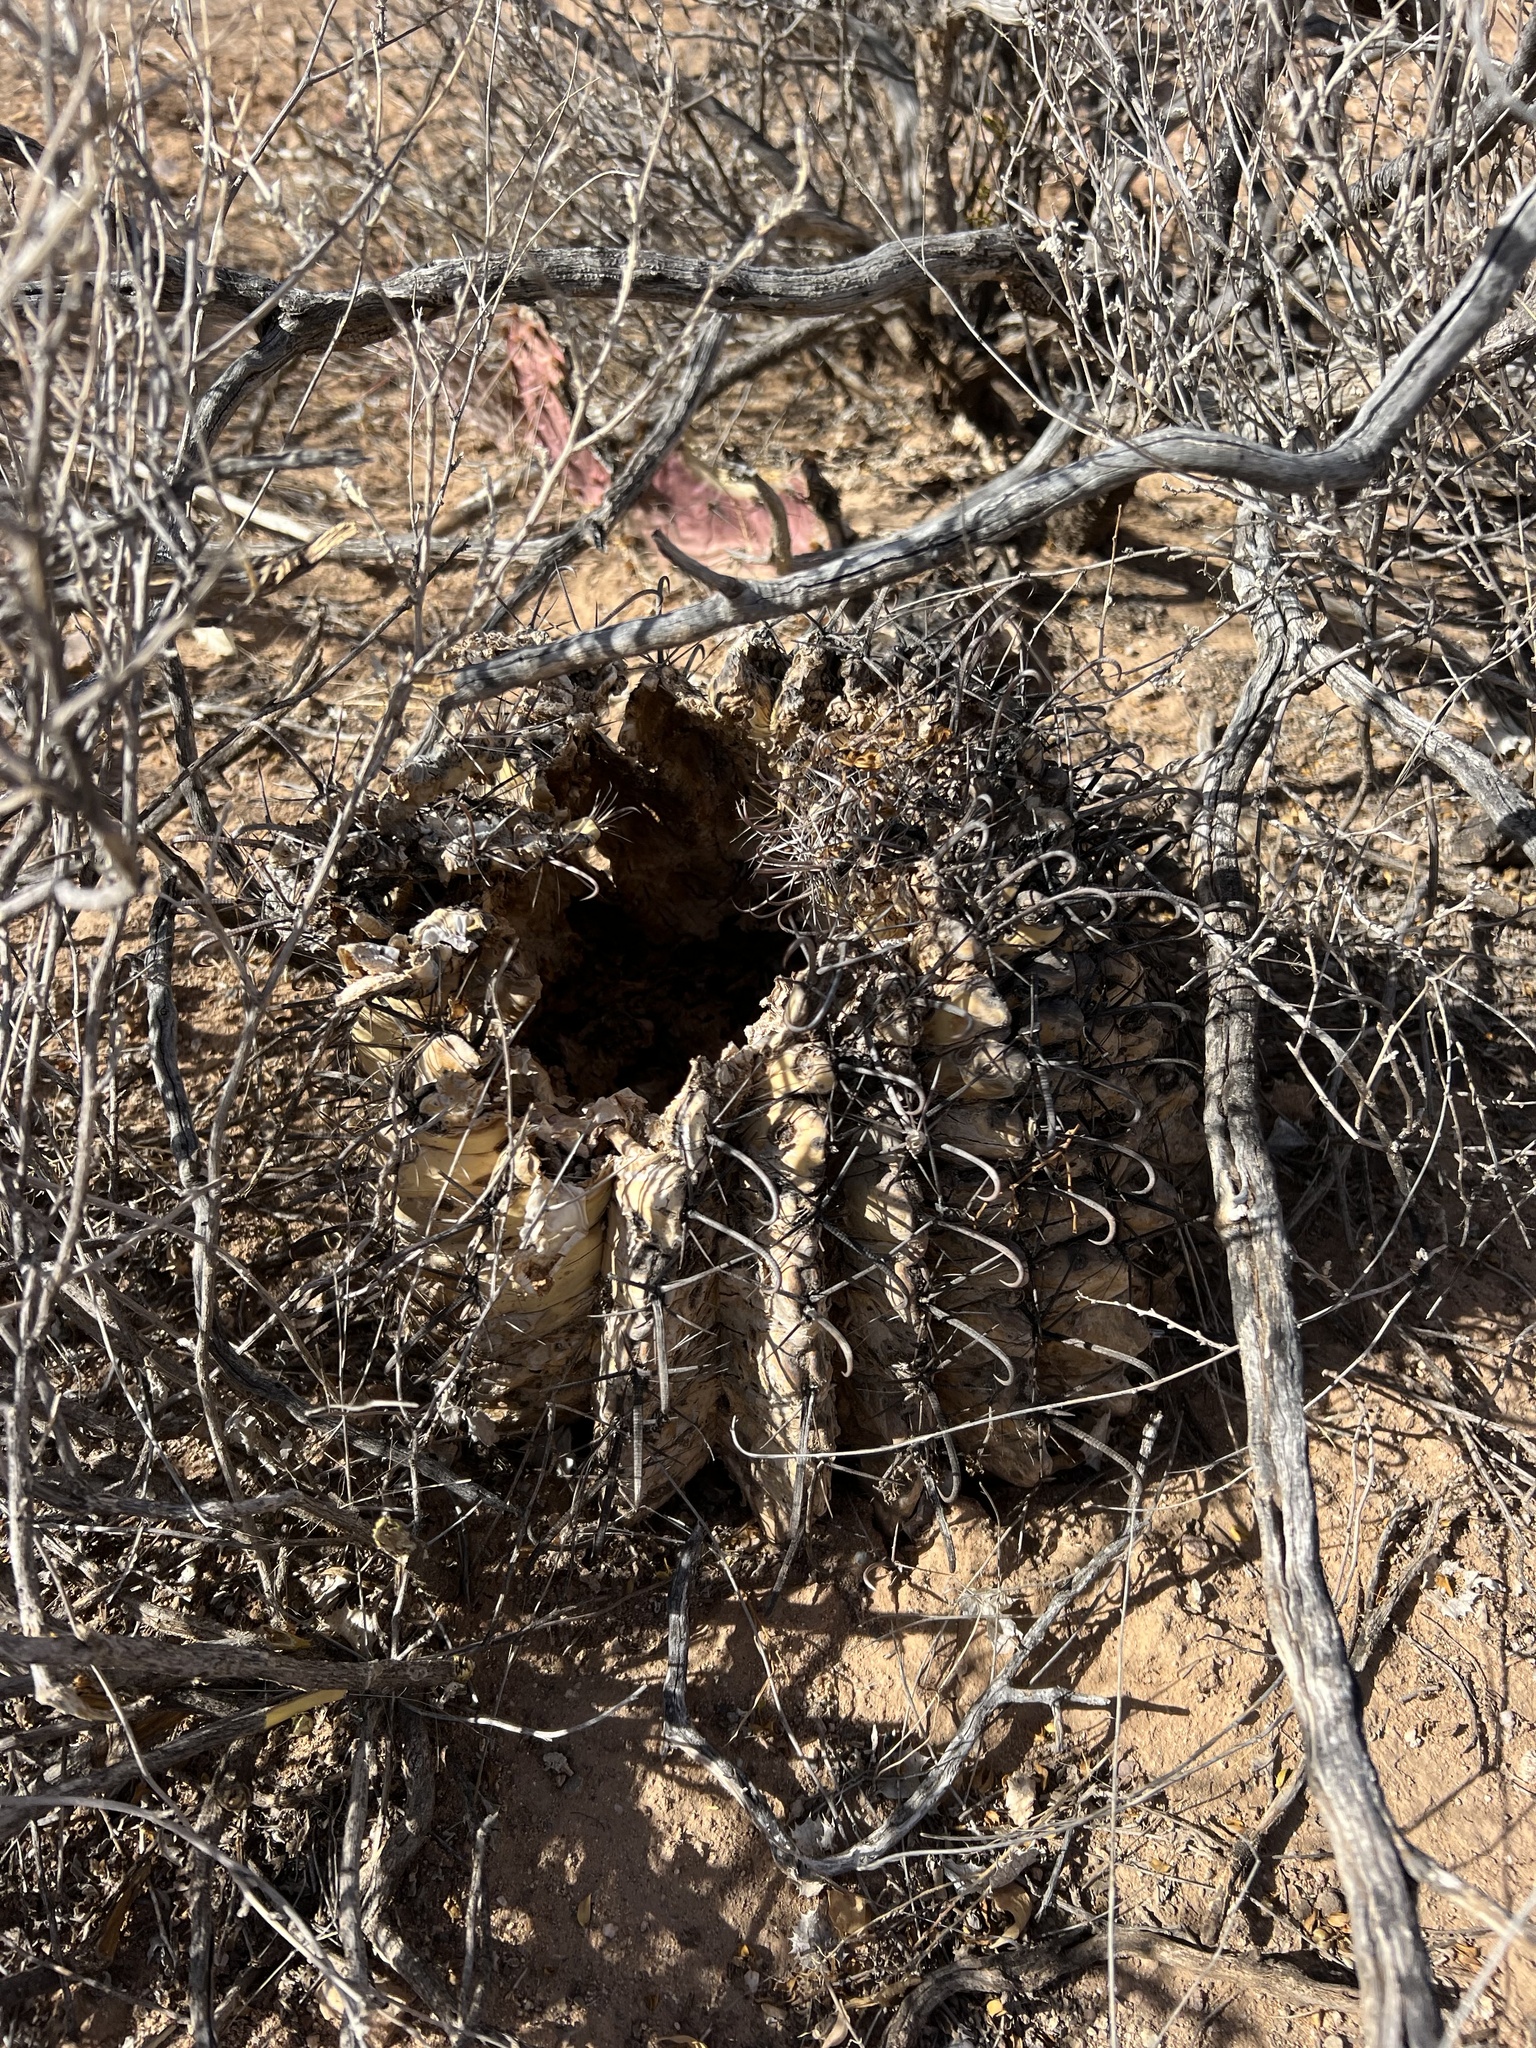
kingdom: Plantae
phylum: Tracheophyta
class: Magnoliopsida
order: Caryophyllales
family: Cactaceae
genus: Ferocactus
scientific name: Ferocactus wislizeni
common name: Candy barrel cactus
